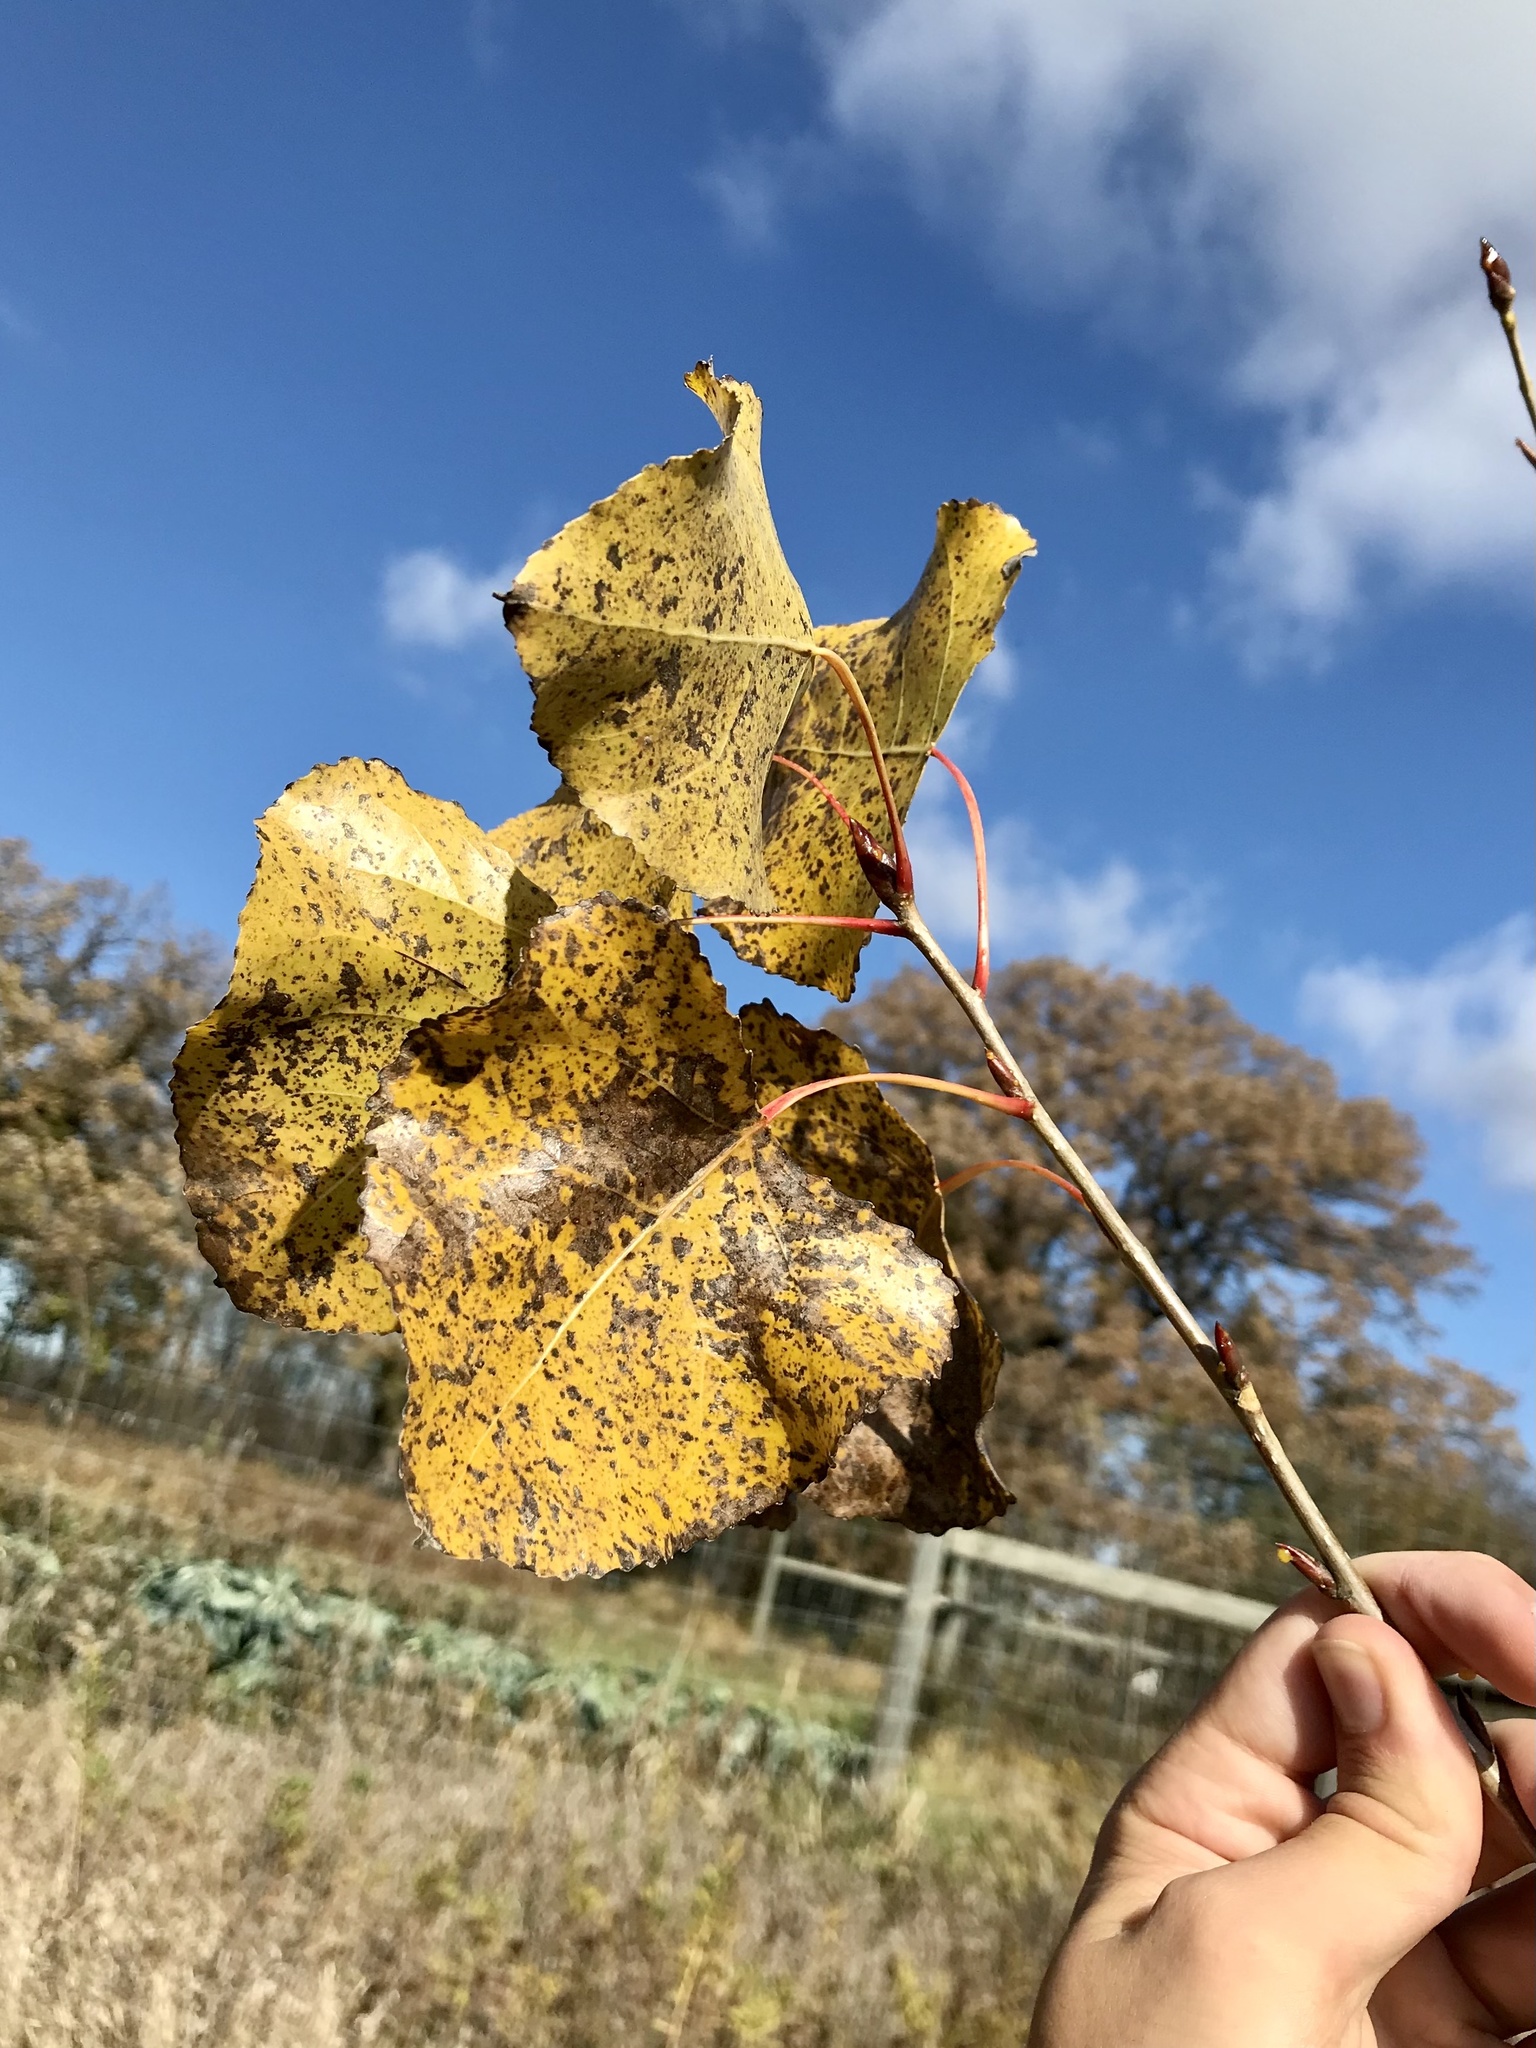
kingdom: Plantae
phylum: Tracheophyta
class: Magnoliopsida
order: Malpighiales
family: Salicaceae
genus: Populus
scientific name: Populus deltoides
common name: Eastern cottonwood
